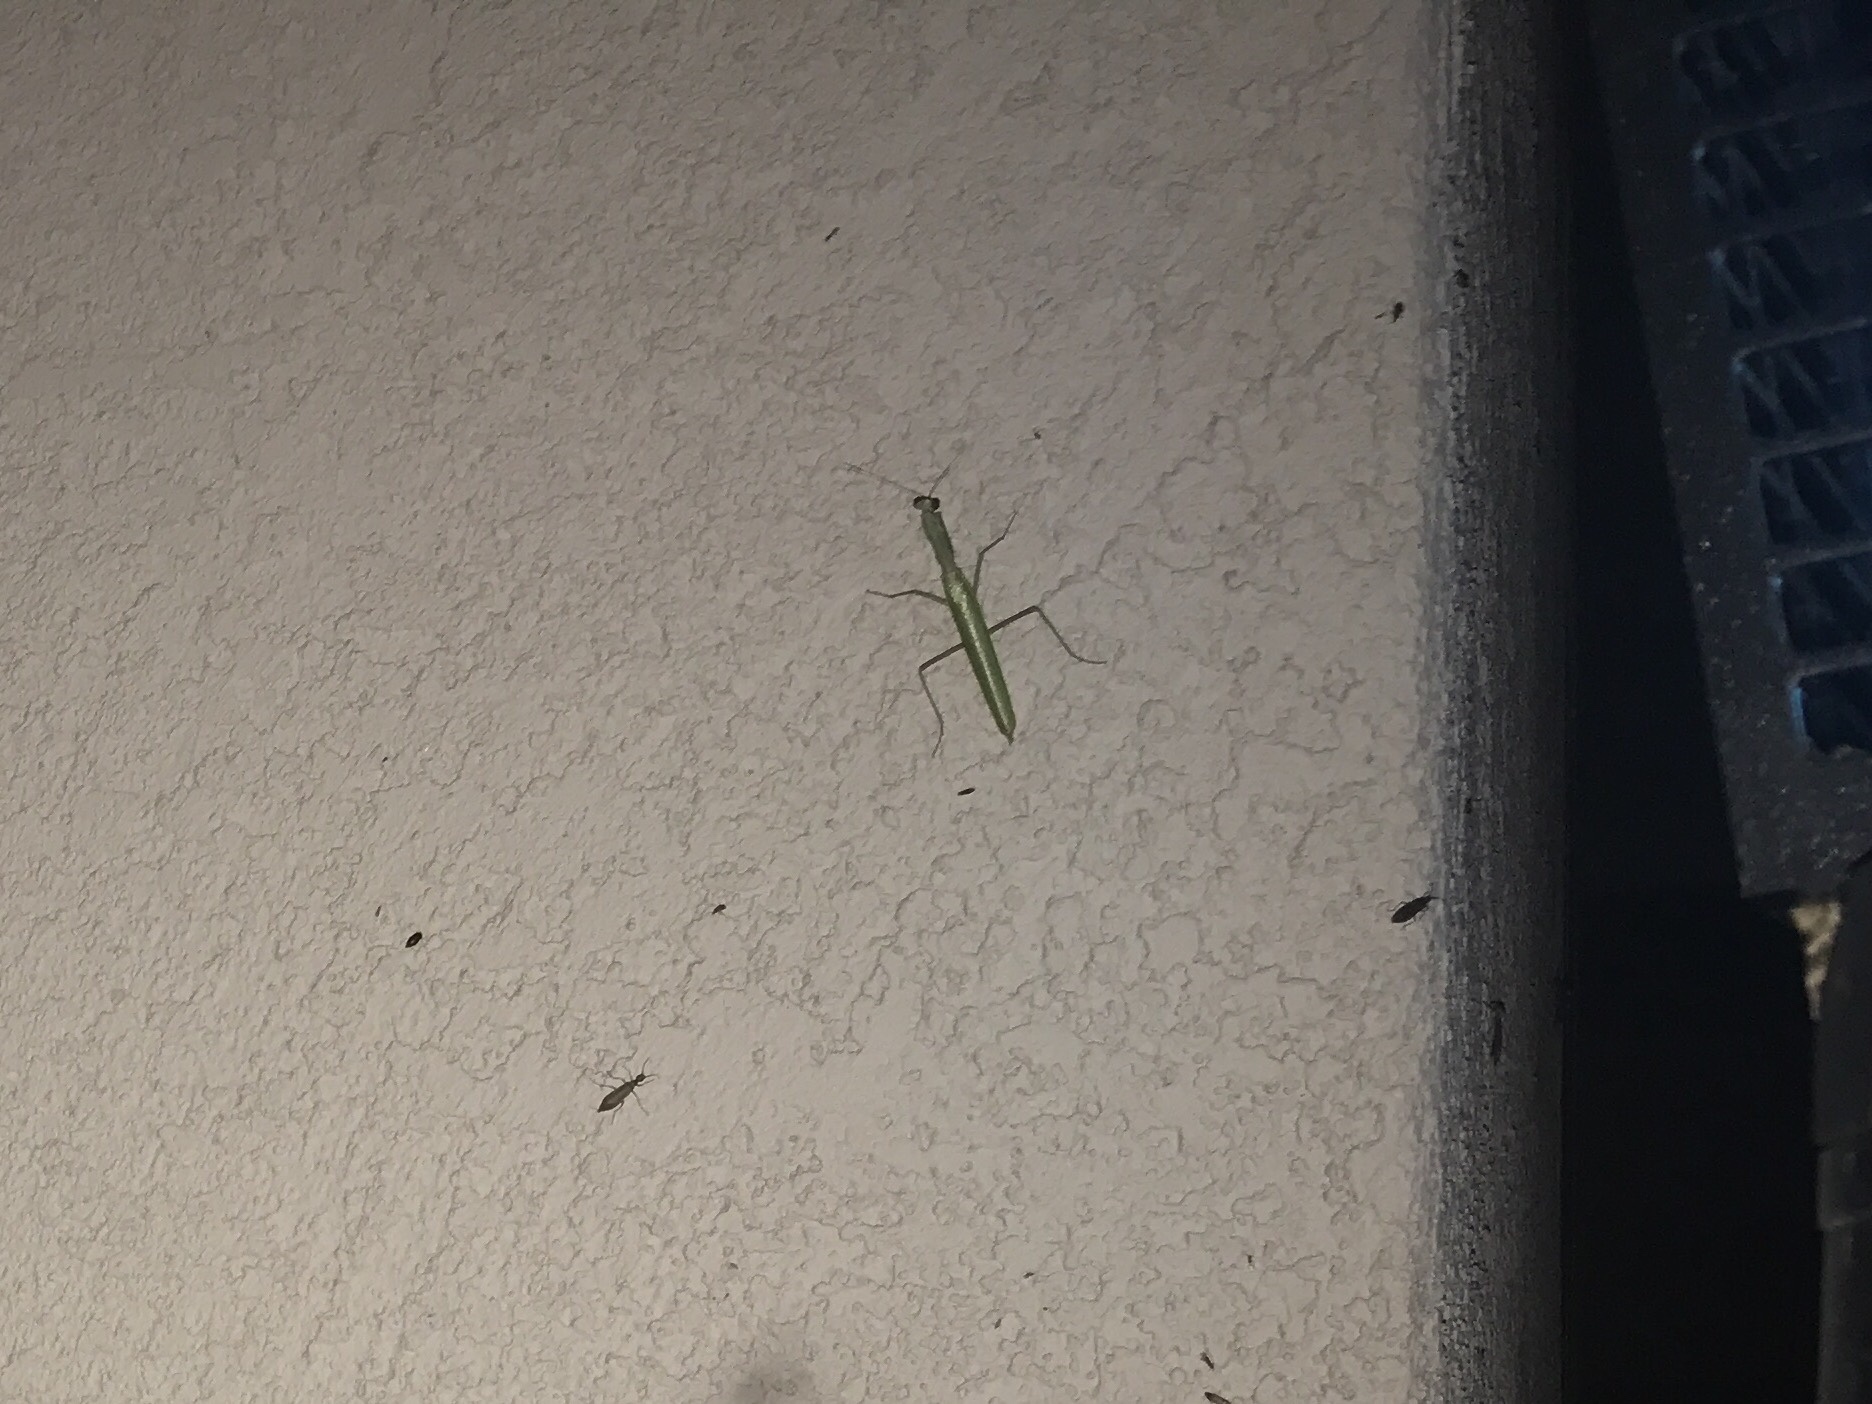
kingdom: Animalia
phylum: Arthropoda
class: Insecta
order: Mantodea
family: Eremiaphilidae
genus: Iris
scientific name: Iris oratoria
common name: Mediterranean mantis
